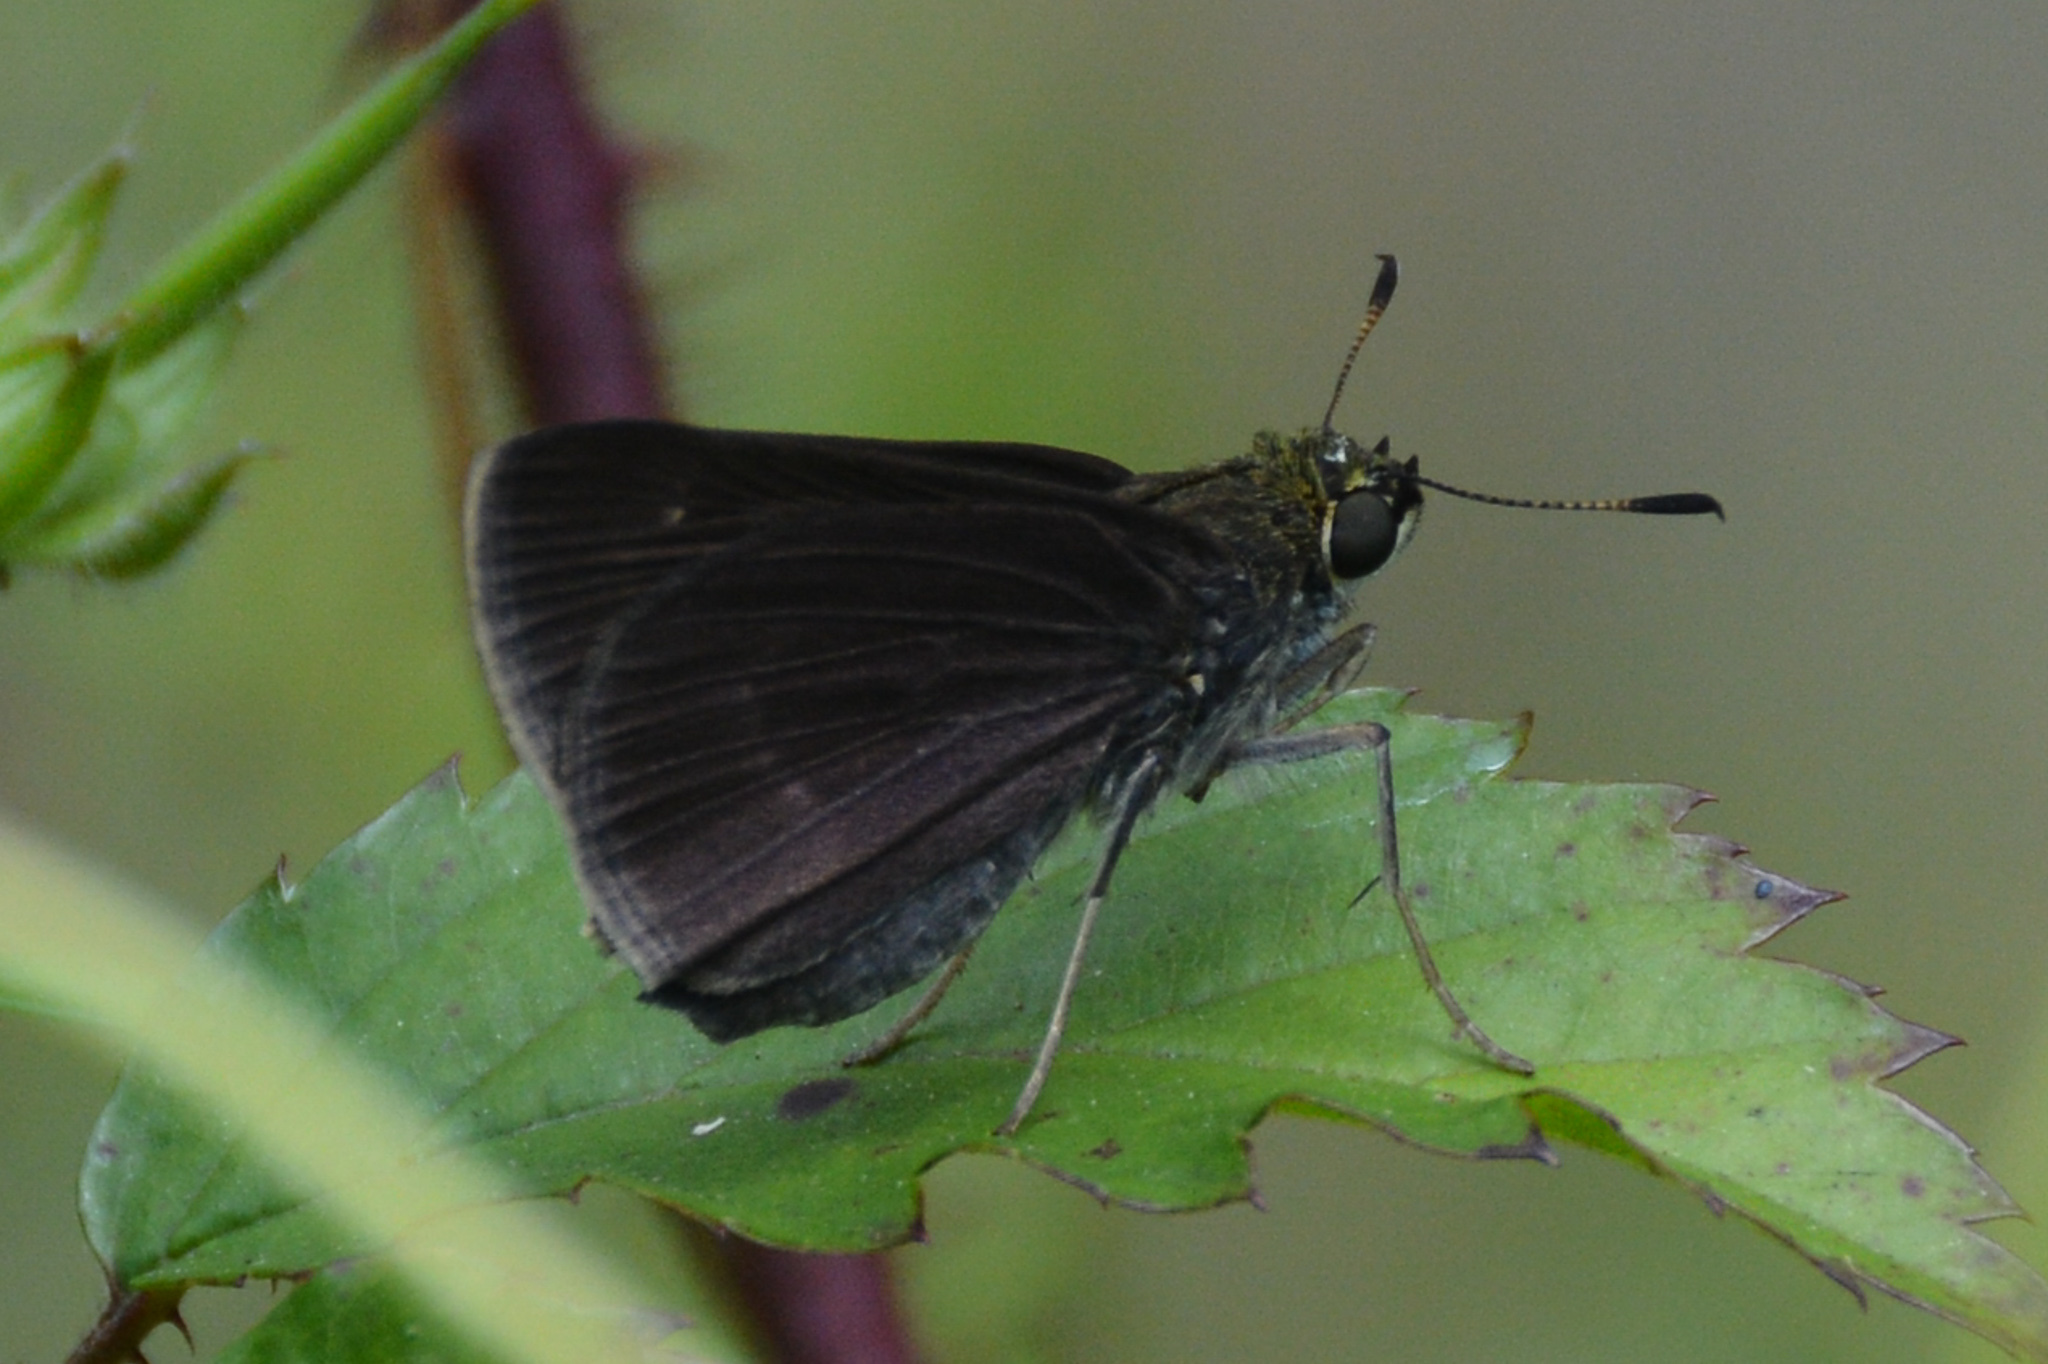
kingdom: Animalia
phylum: Arthropoda
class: Insecta
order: Lepidoptera
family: Hesperiidae
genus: Euphyes
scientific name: Euphyes vestris
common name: Dun skipper
